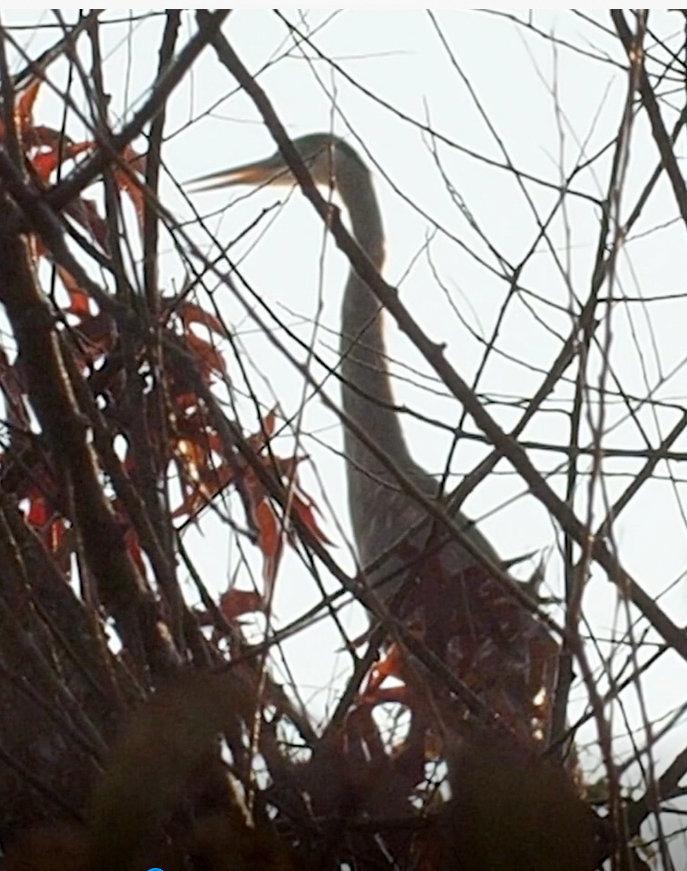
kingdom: Animalia
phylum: Chordata
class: Aves
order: Pelecaniformes
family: Ardeidae
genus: Ardea
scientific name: Ardea herodias
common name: Great blue heron
